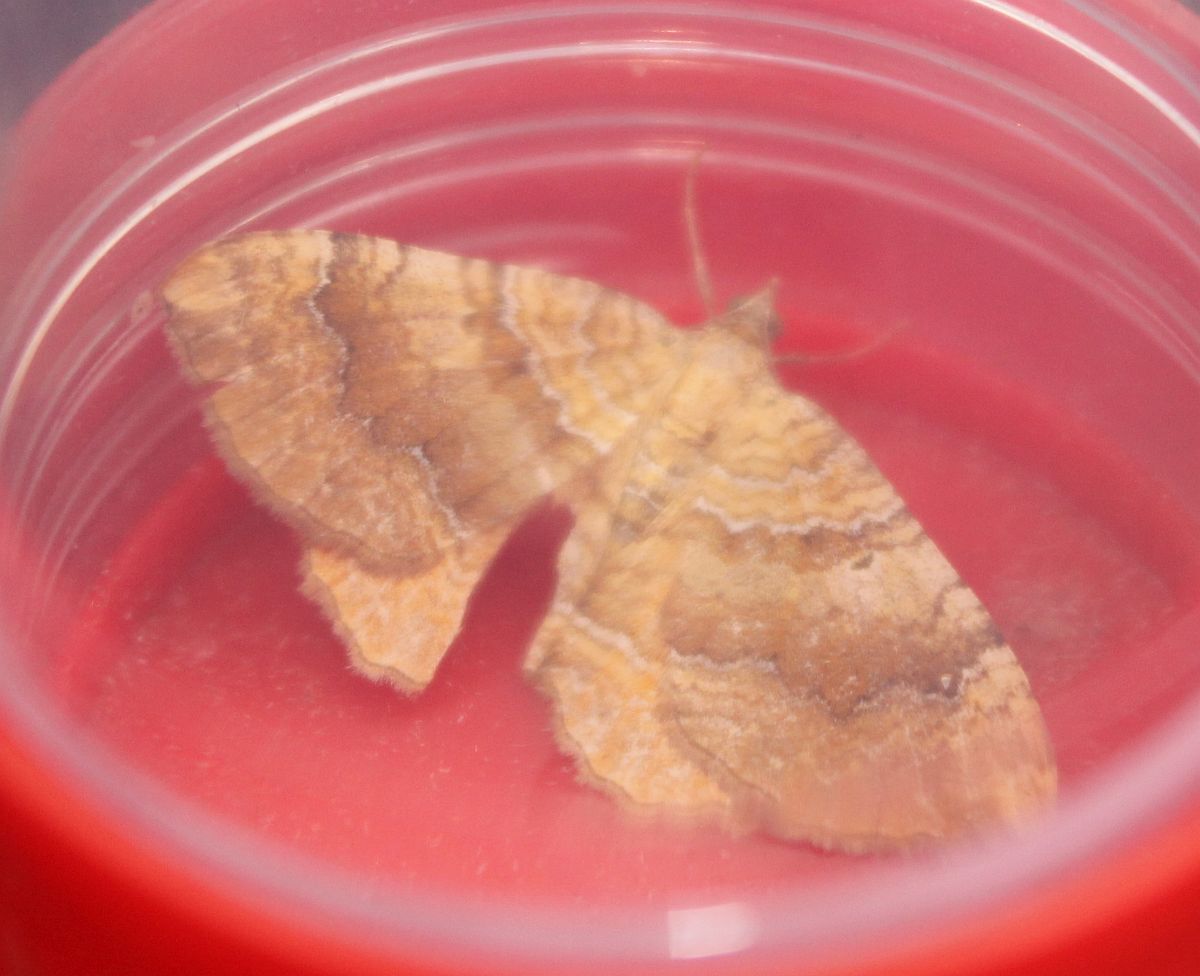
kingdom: Animalia
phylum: Arthropoda
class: Insecta
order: Lepidoptera
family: Geometridae
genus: Camptogramma
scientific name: Camptogramma bilineata
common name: Yellow shell
